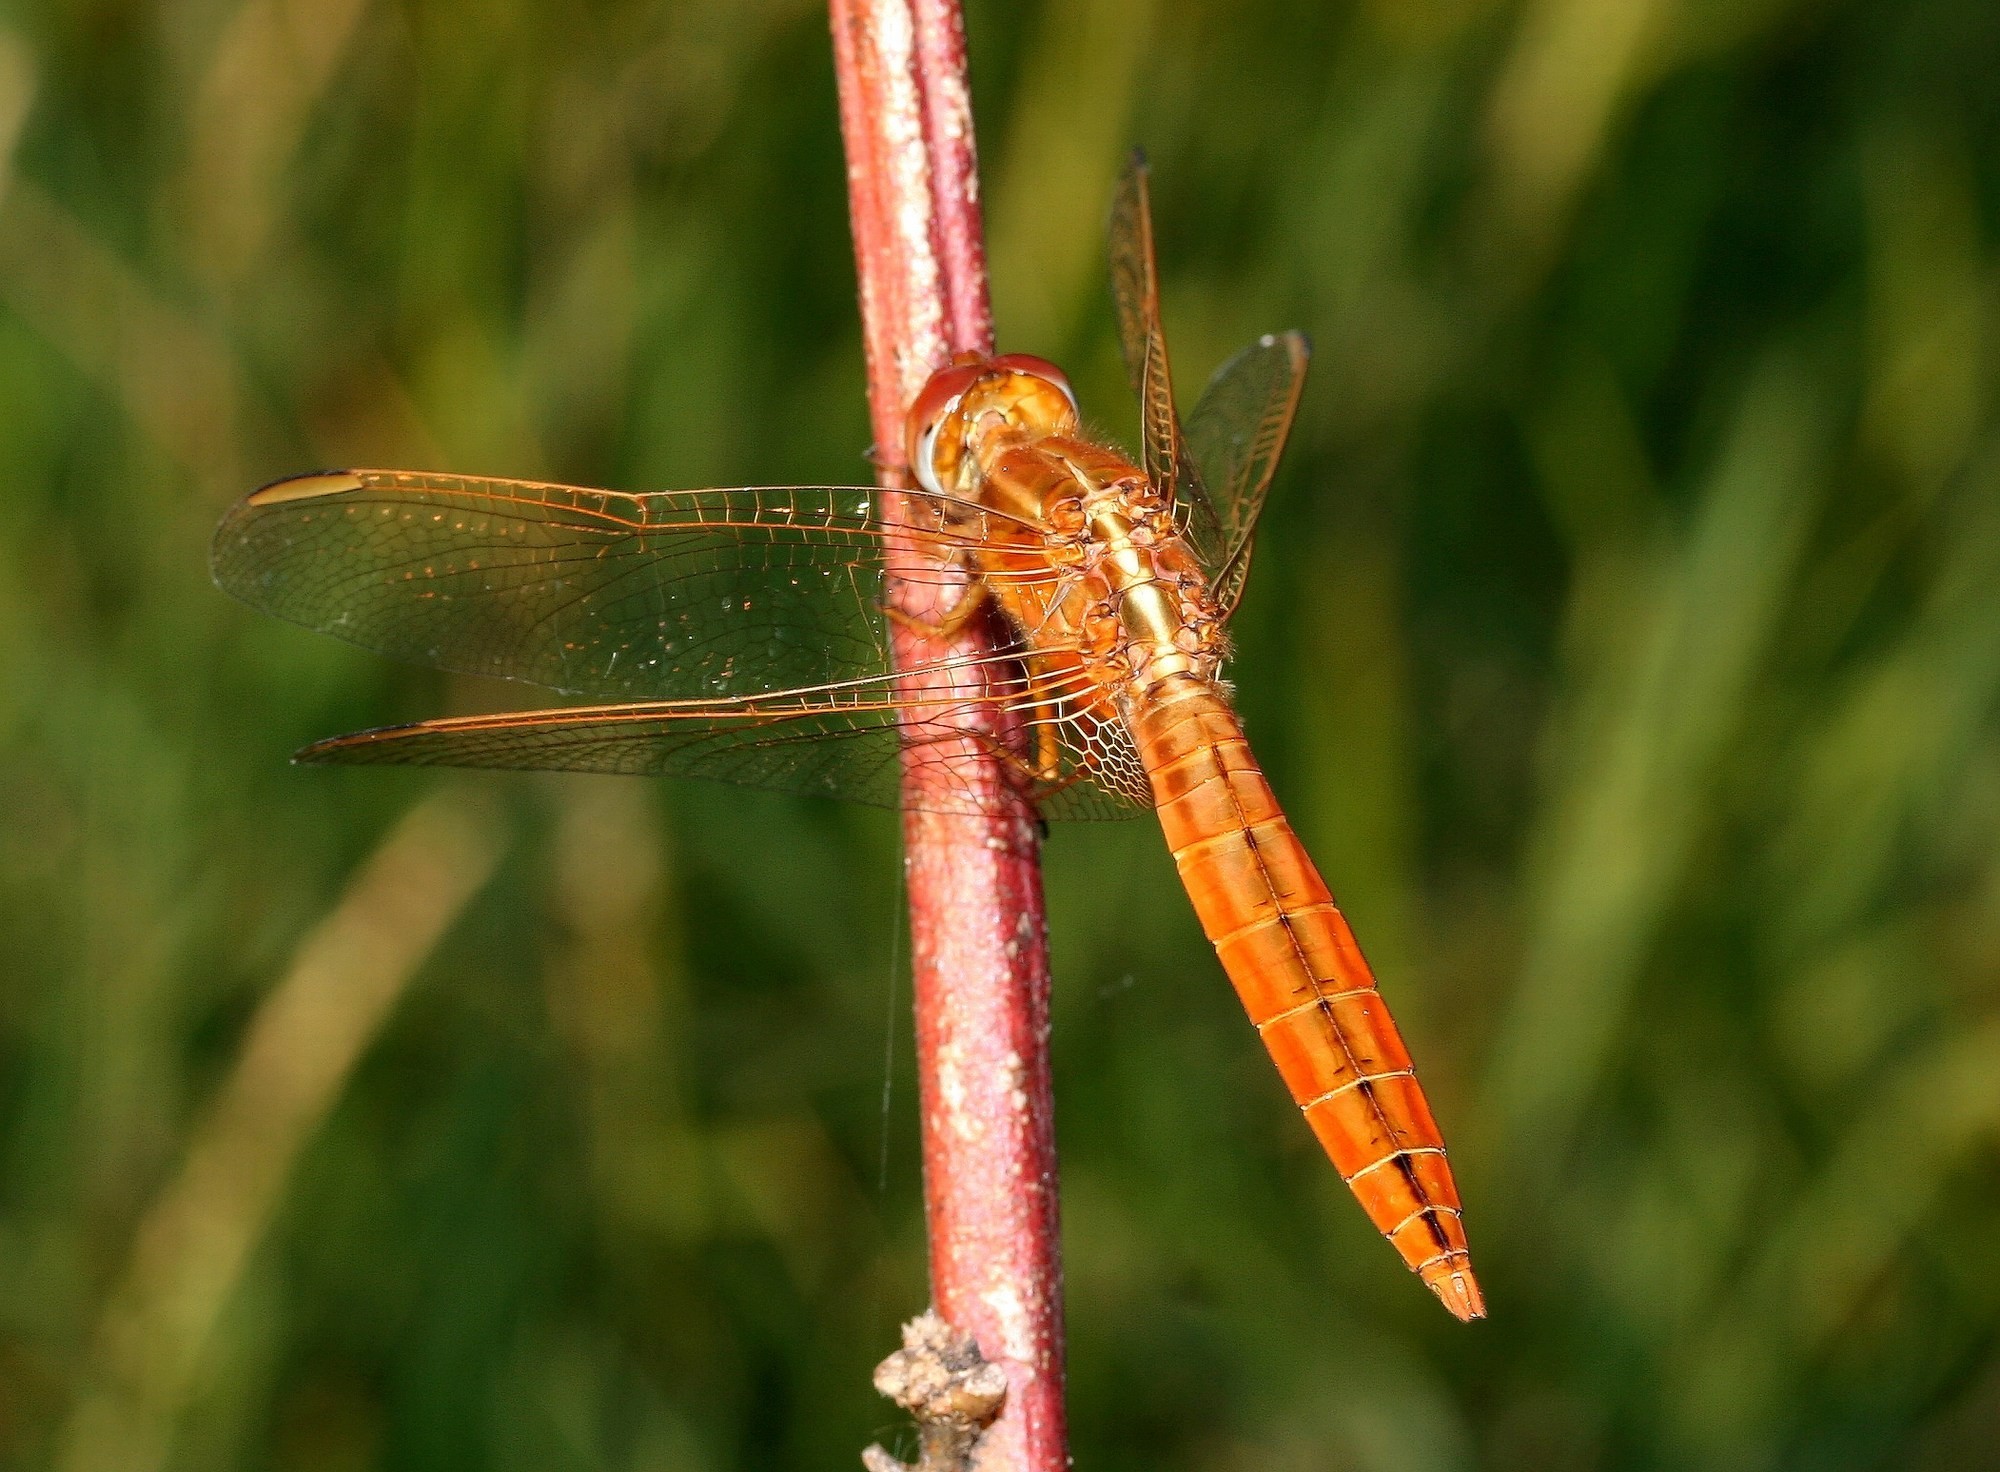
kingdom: Animalia
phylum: Arthropoda
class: Insecta
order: Odonata
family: Libellulidae
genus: Crocothemis
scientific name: Crocothemis erythraea
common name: Scarlet dragonfly
